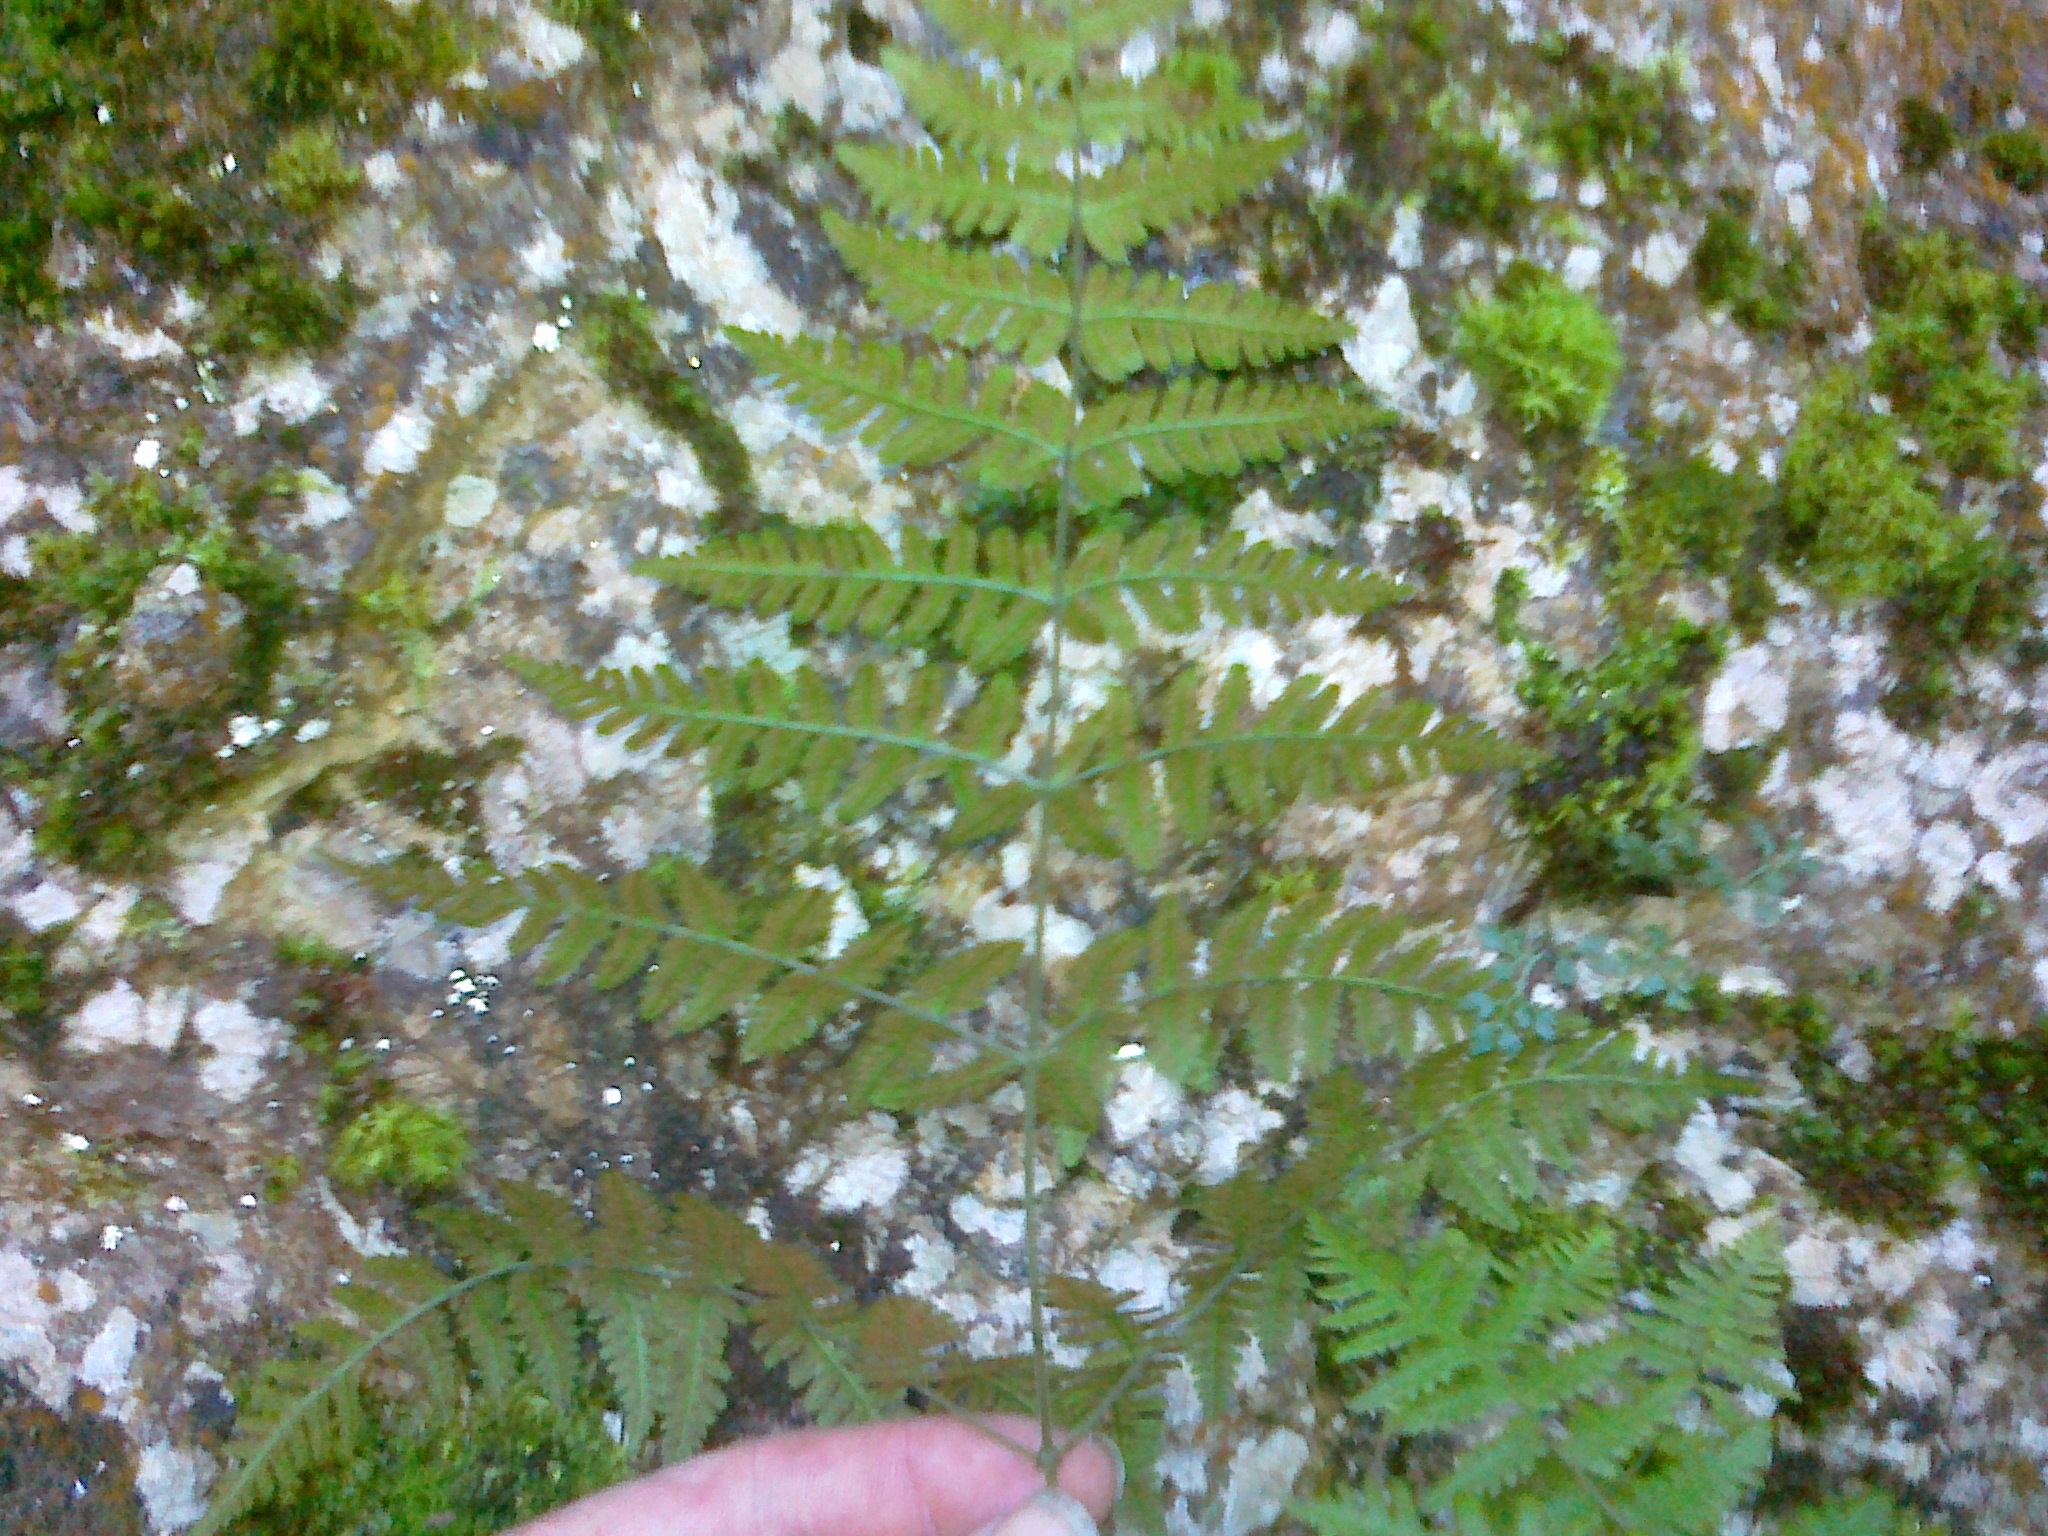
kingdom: Plantae
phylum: Tracheophyta
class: Polypodiopsida
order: Polypodiales
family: Cystopteridaceae
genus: Gymnocarpium
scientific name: Gymnocarpium robertianum
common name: Limestone fern
